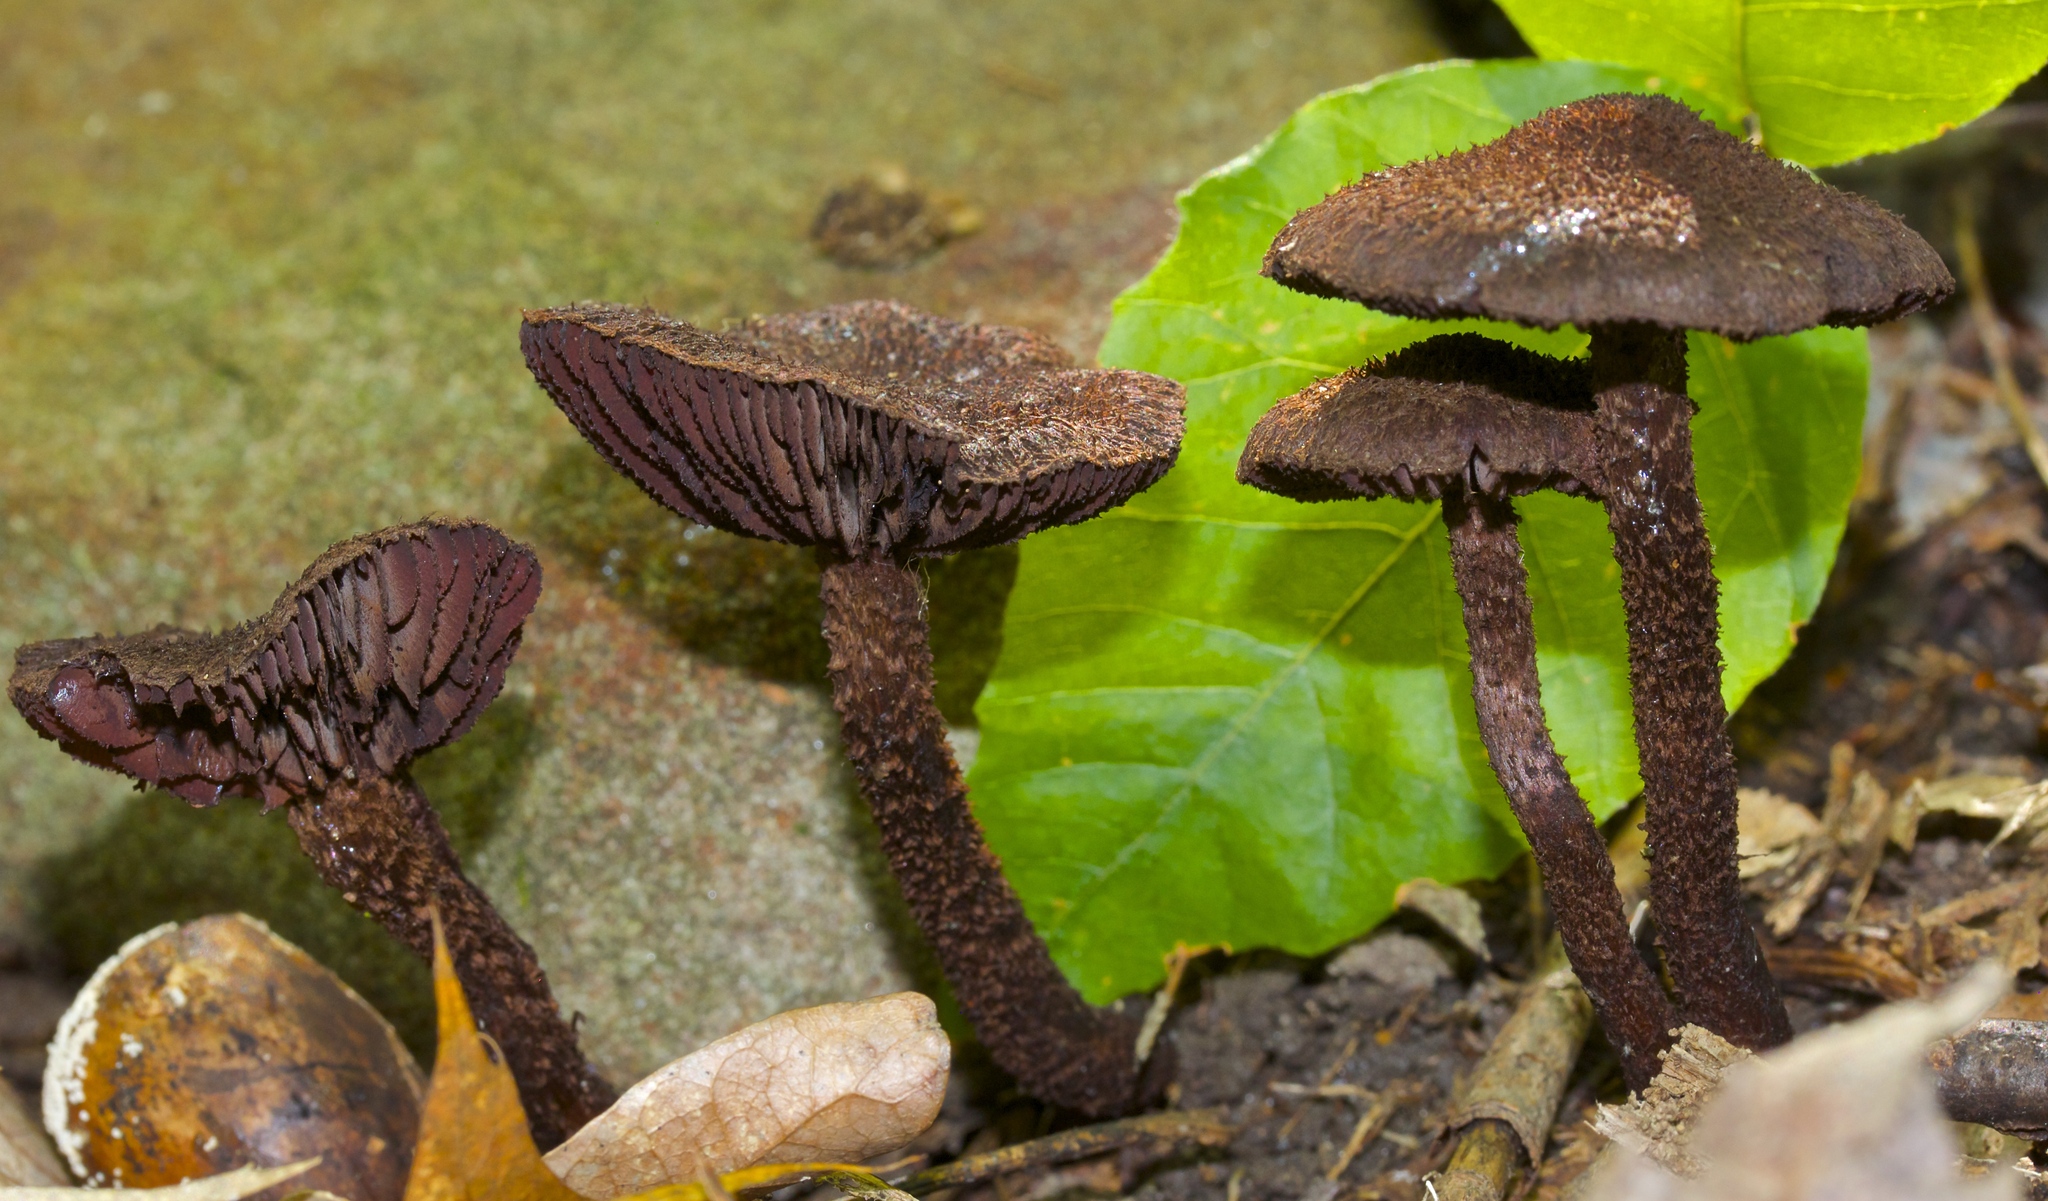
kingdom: Fungi
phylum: Basidiomycota
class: Agaricomycetes
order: Agaricales
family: Inocybaceae
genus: Inocybe
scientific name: Inocybe tahquamenonensis
